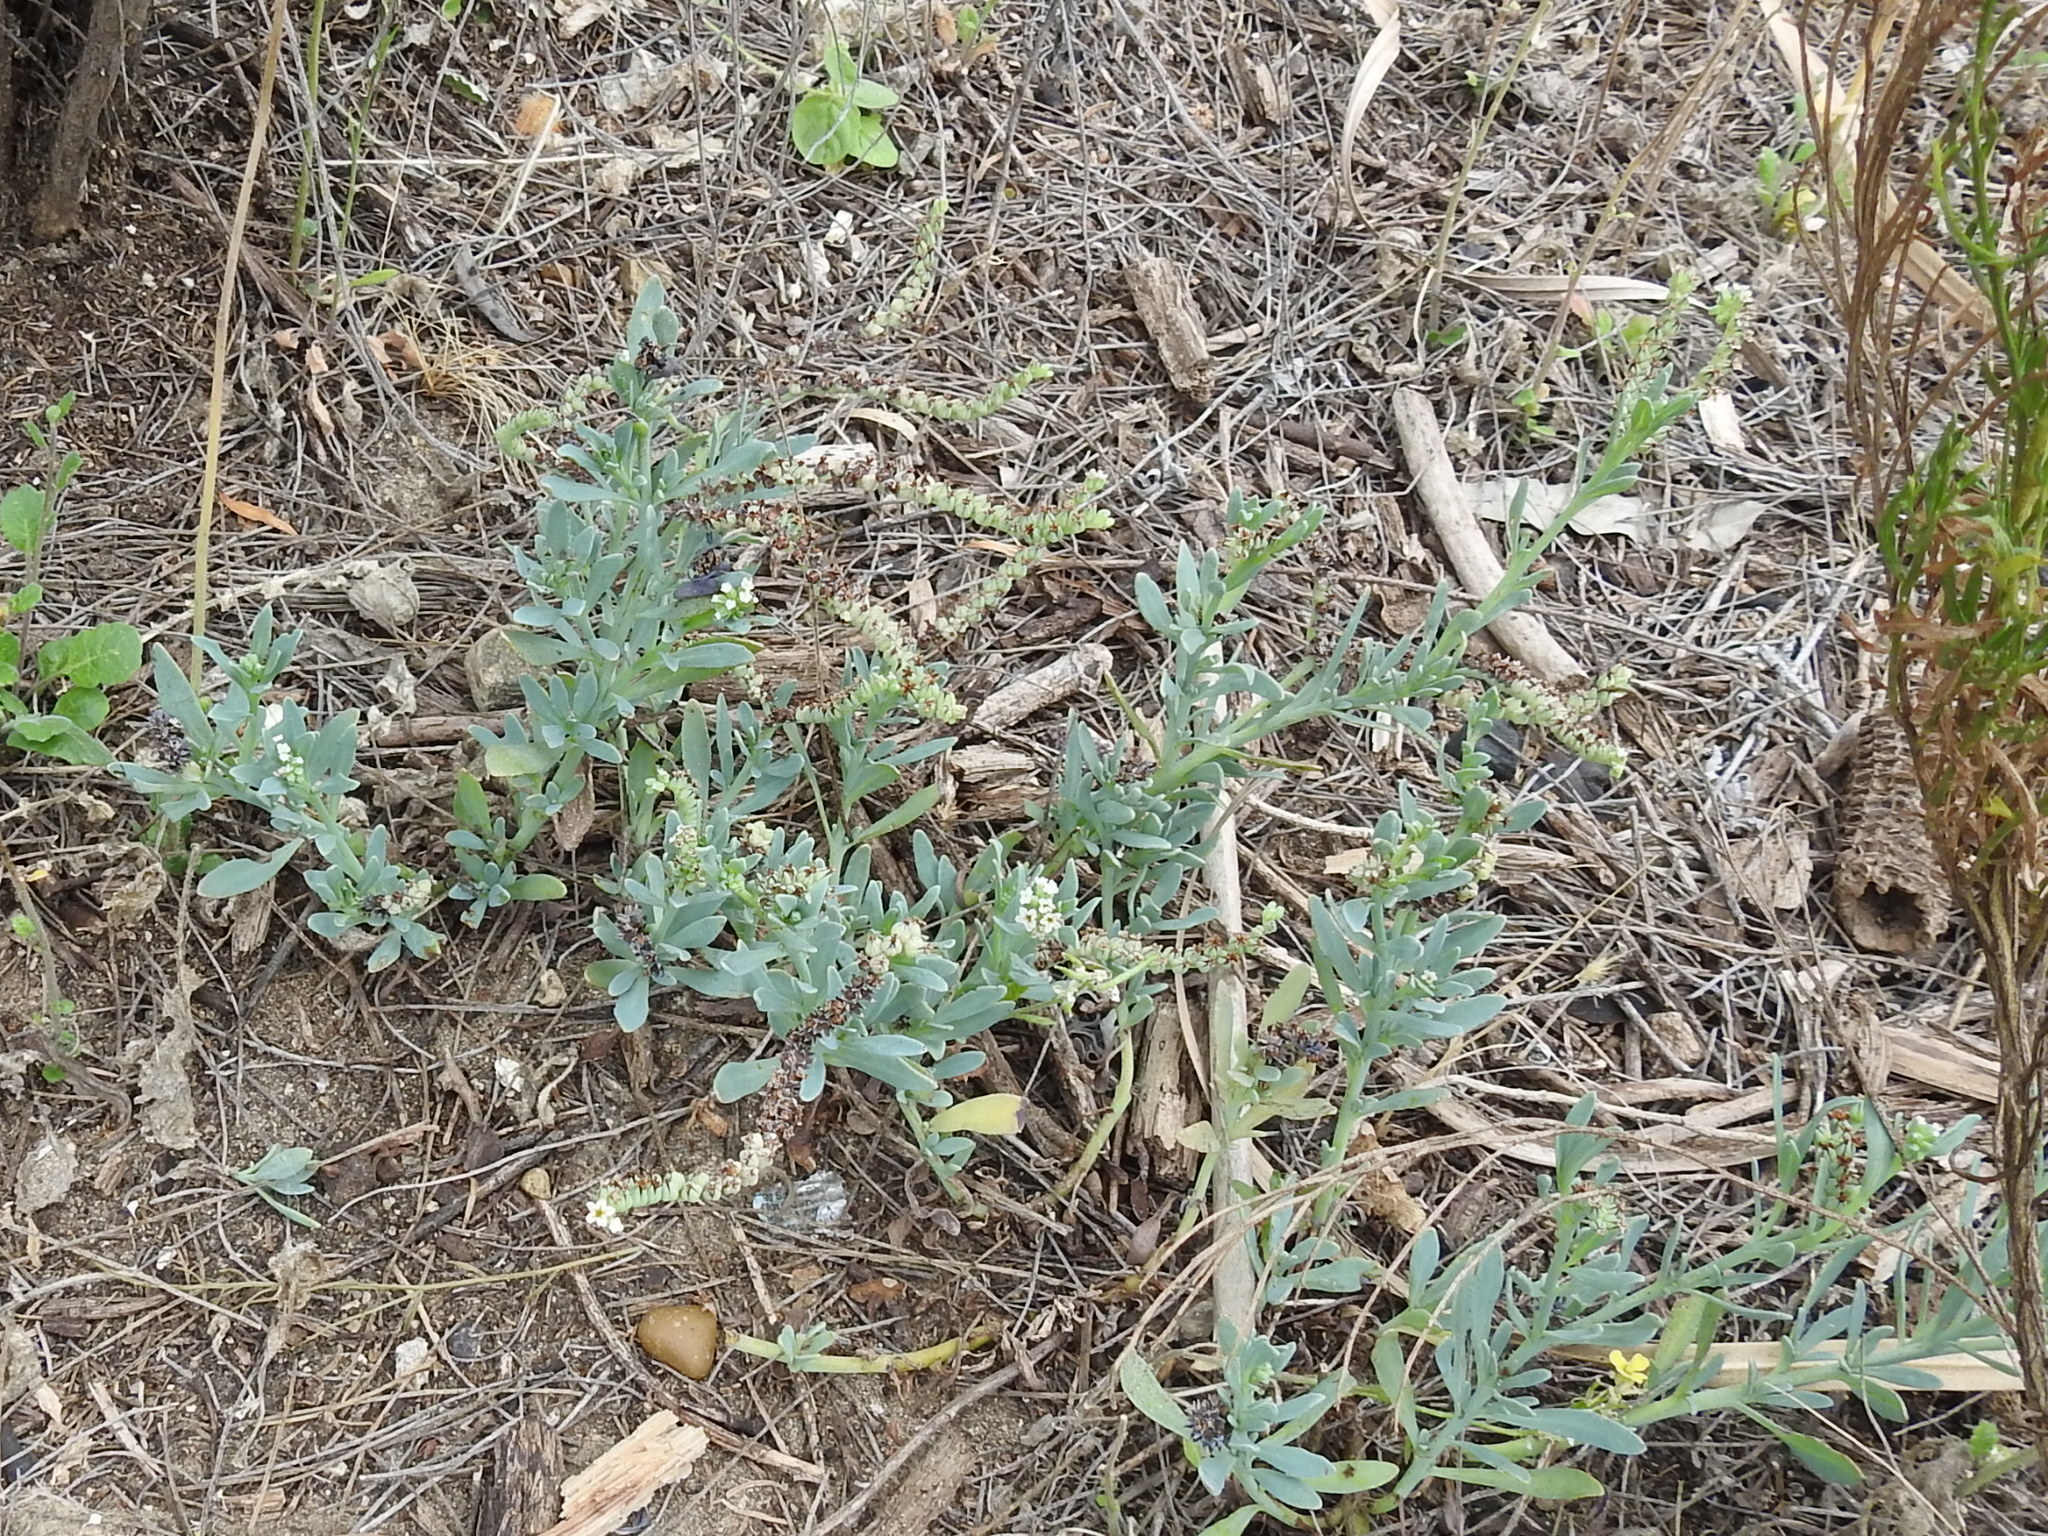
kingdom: Plantae
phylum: Tracheophyta
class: Magnoliopsida
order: Boraginales
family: Heliotropiaceae
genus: Heliotropium
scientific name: Heliotropium curassavicum
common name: Seaside heliotrope
